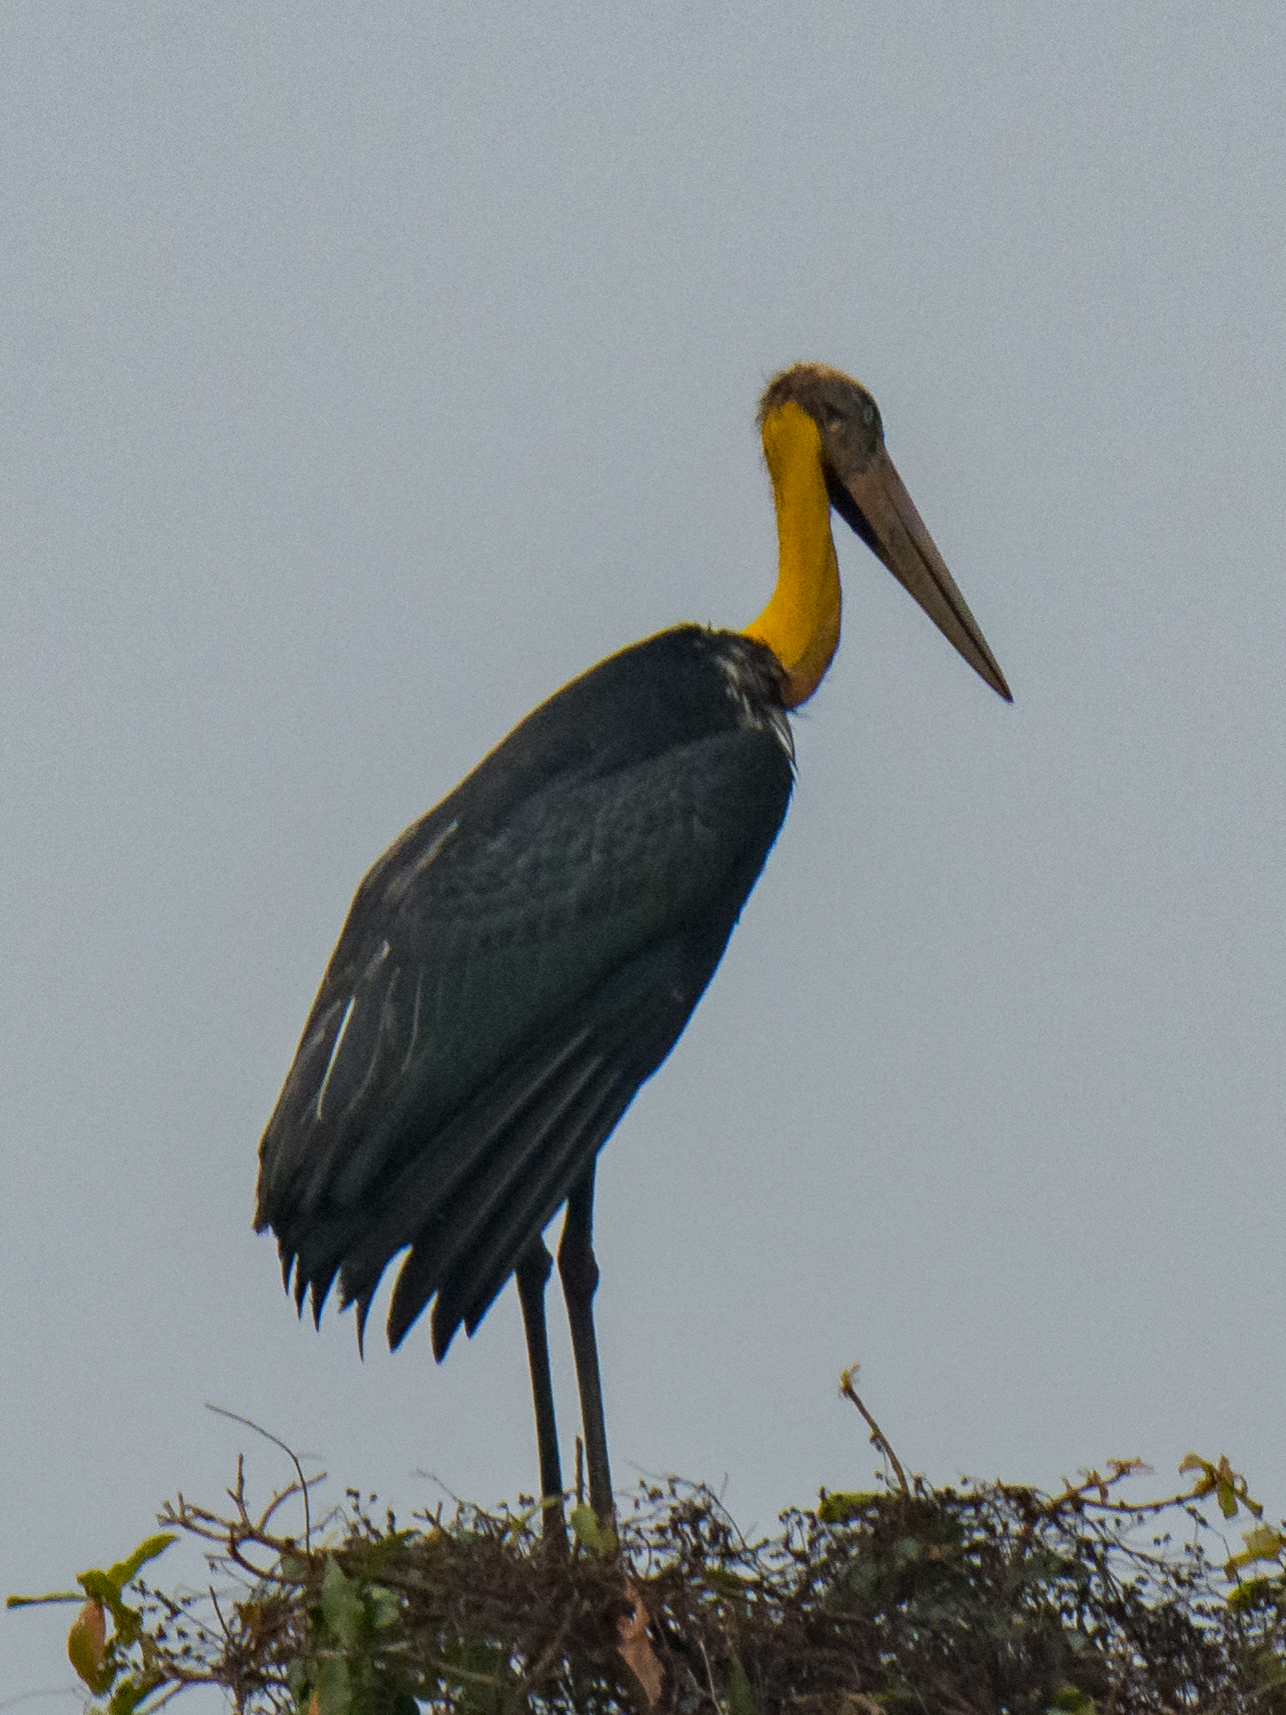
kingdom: Animalia
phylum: Chordata
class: Aves
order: Ciconiiformes
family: Ciconiidae
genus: Leptoptilos
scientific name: Leptoptilos javanicus
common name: Lesser adjutant
